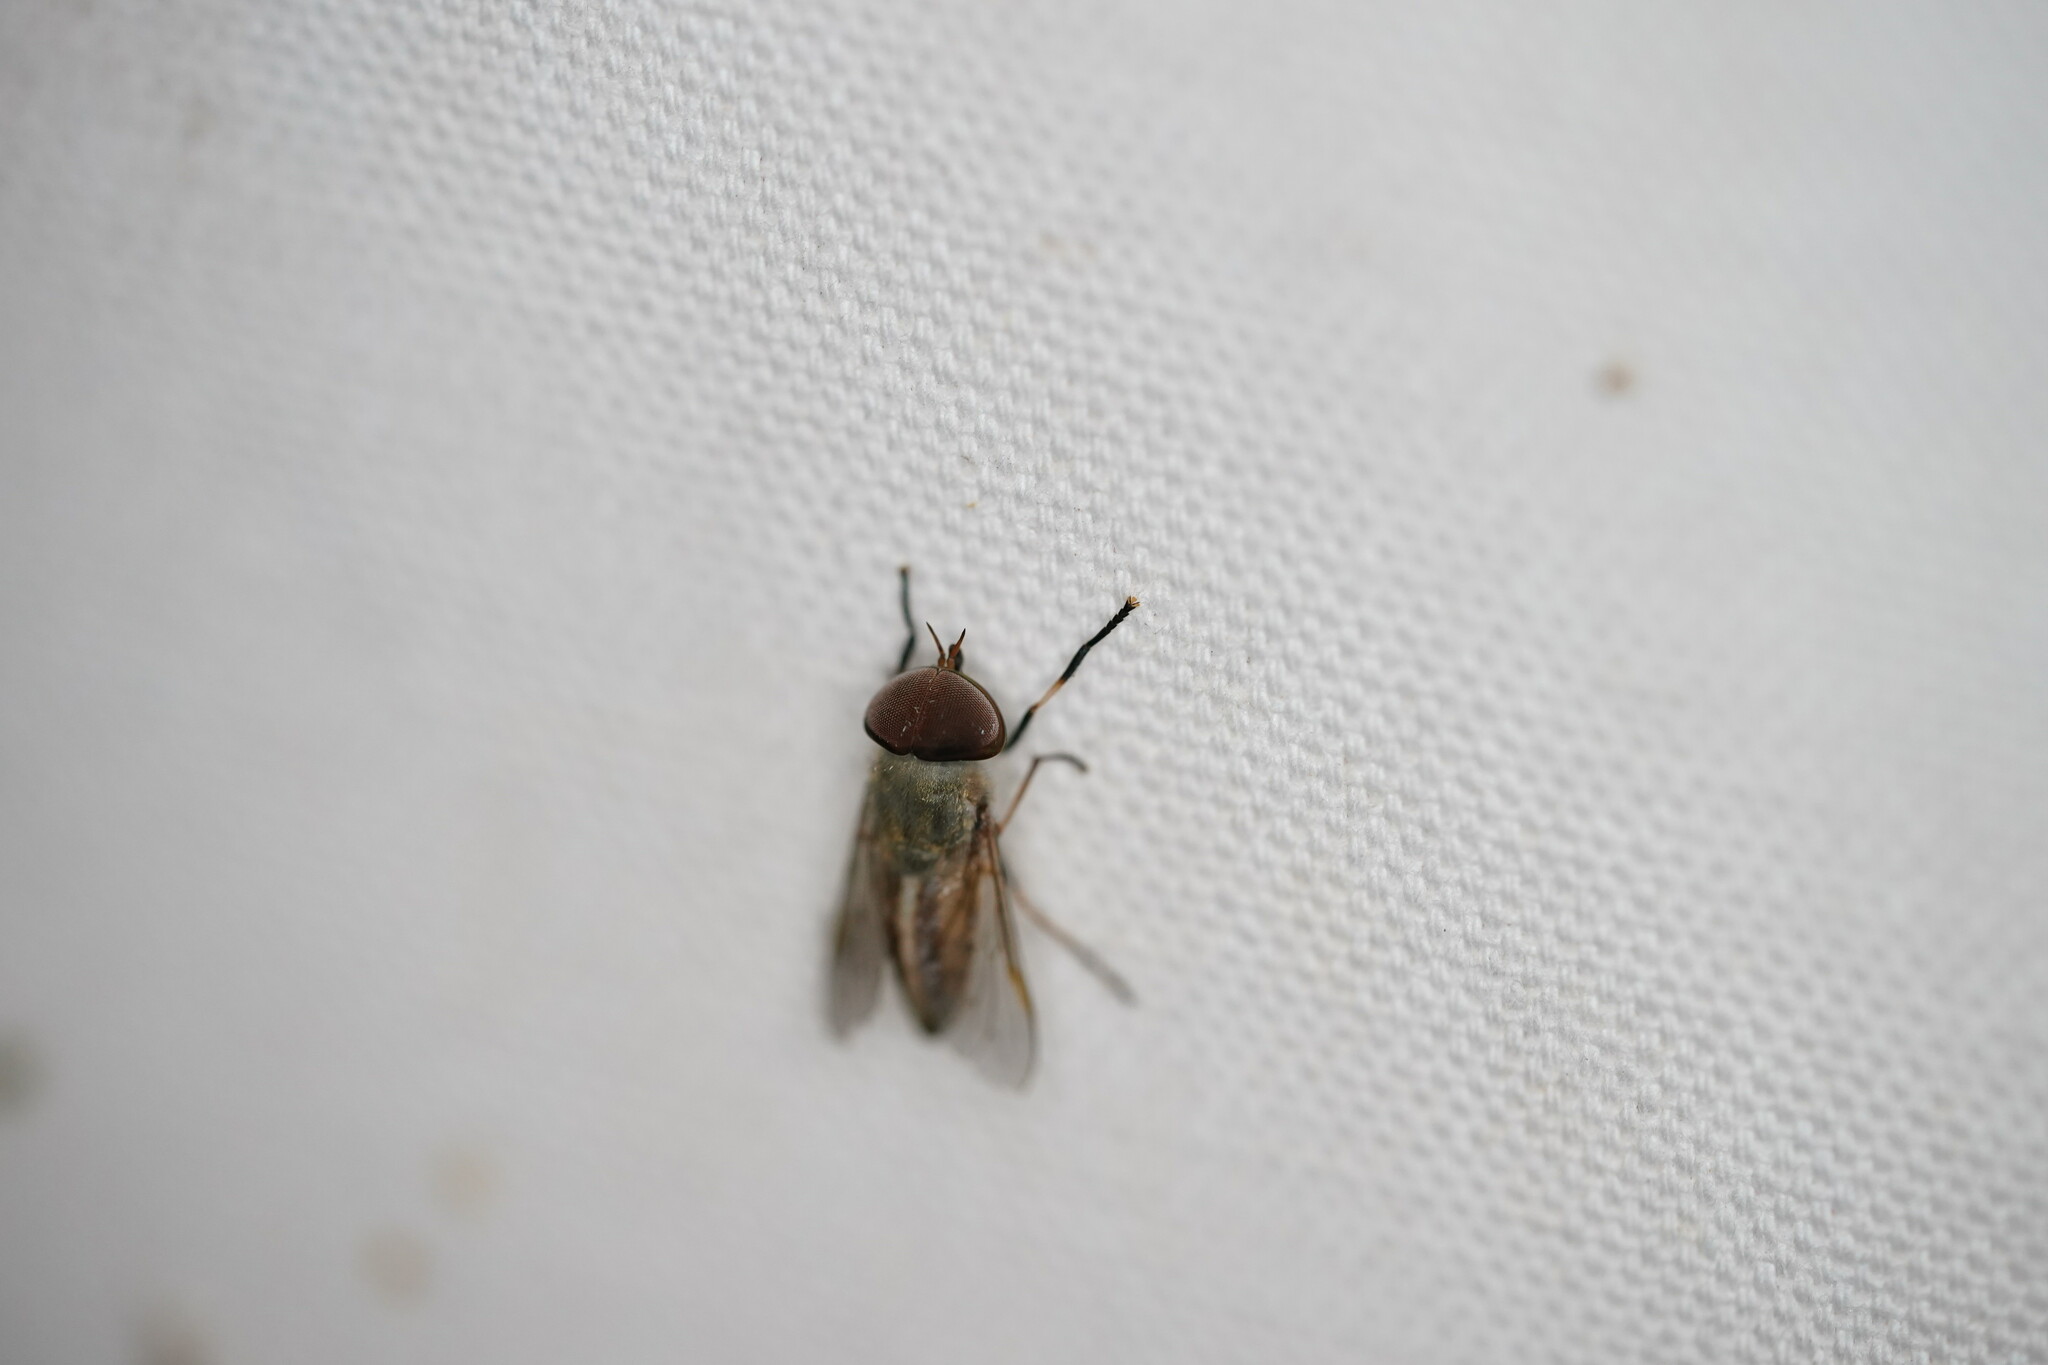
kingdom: Animalia
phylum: Arthropoda
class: Insecta
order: Diptera
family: Tabanidae
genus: Tabanus
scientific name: Tabanus lineola
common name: Striped horse fly
